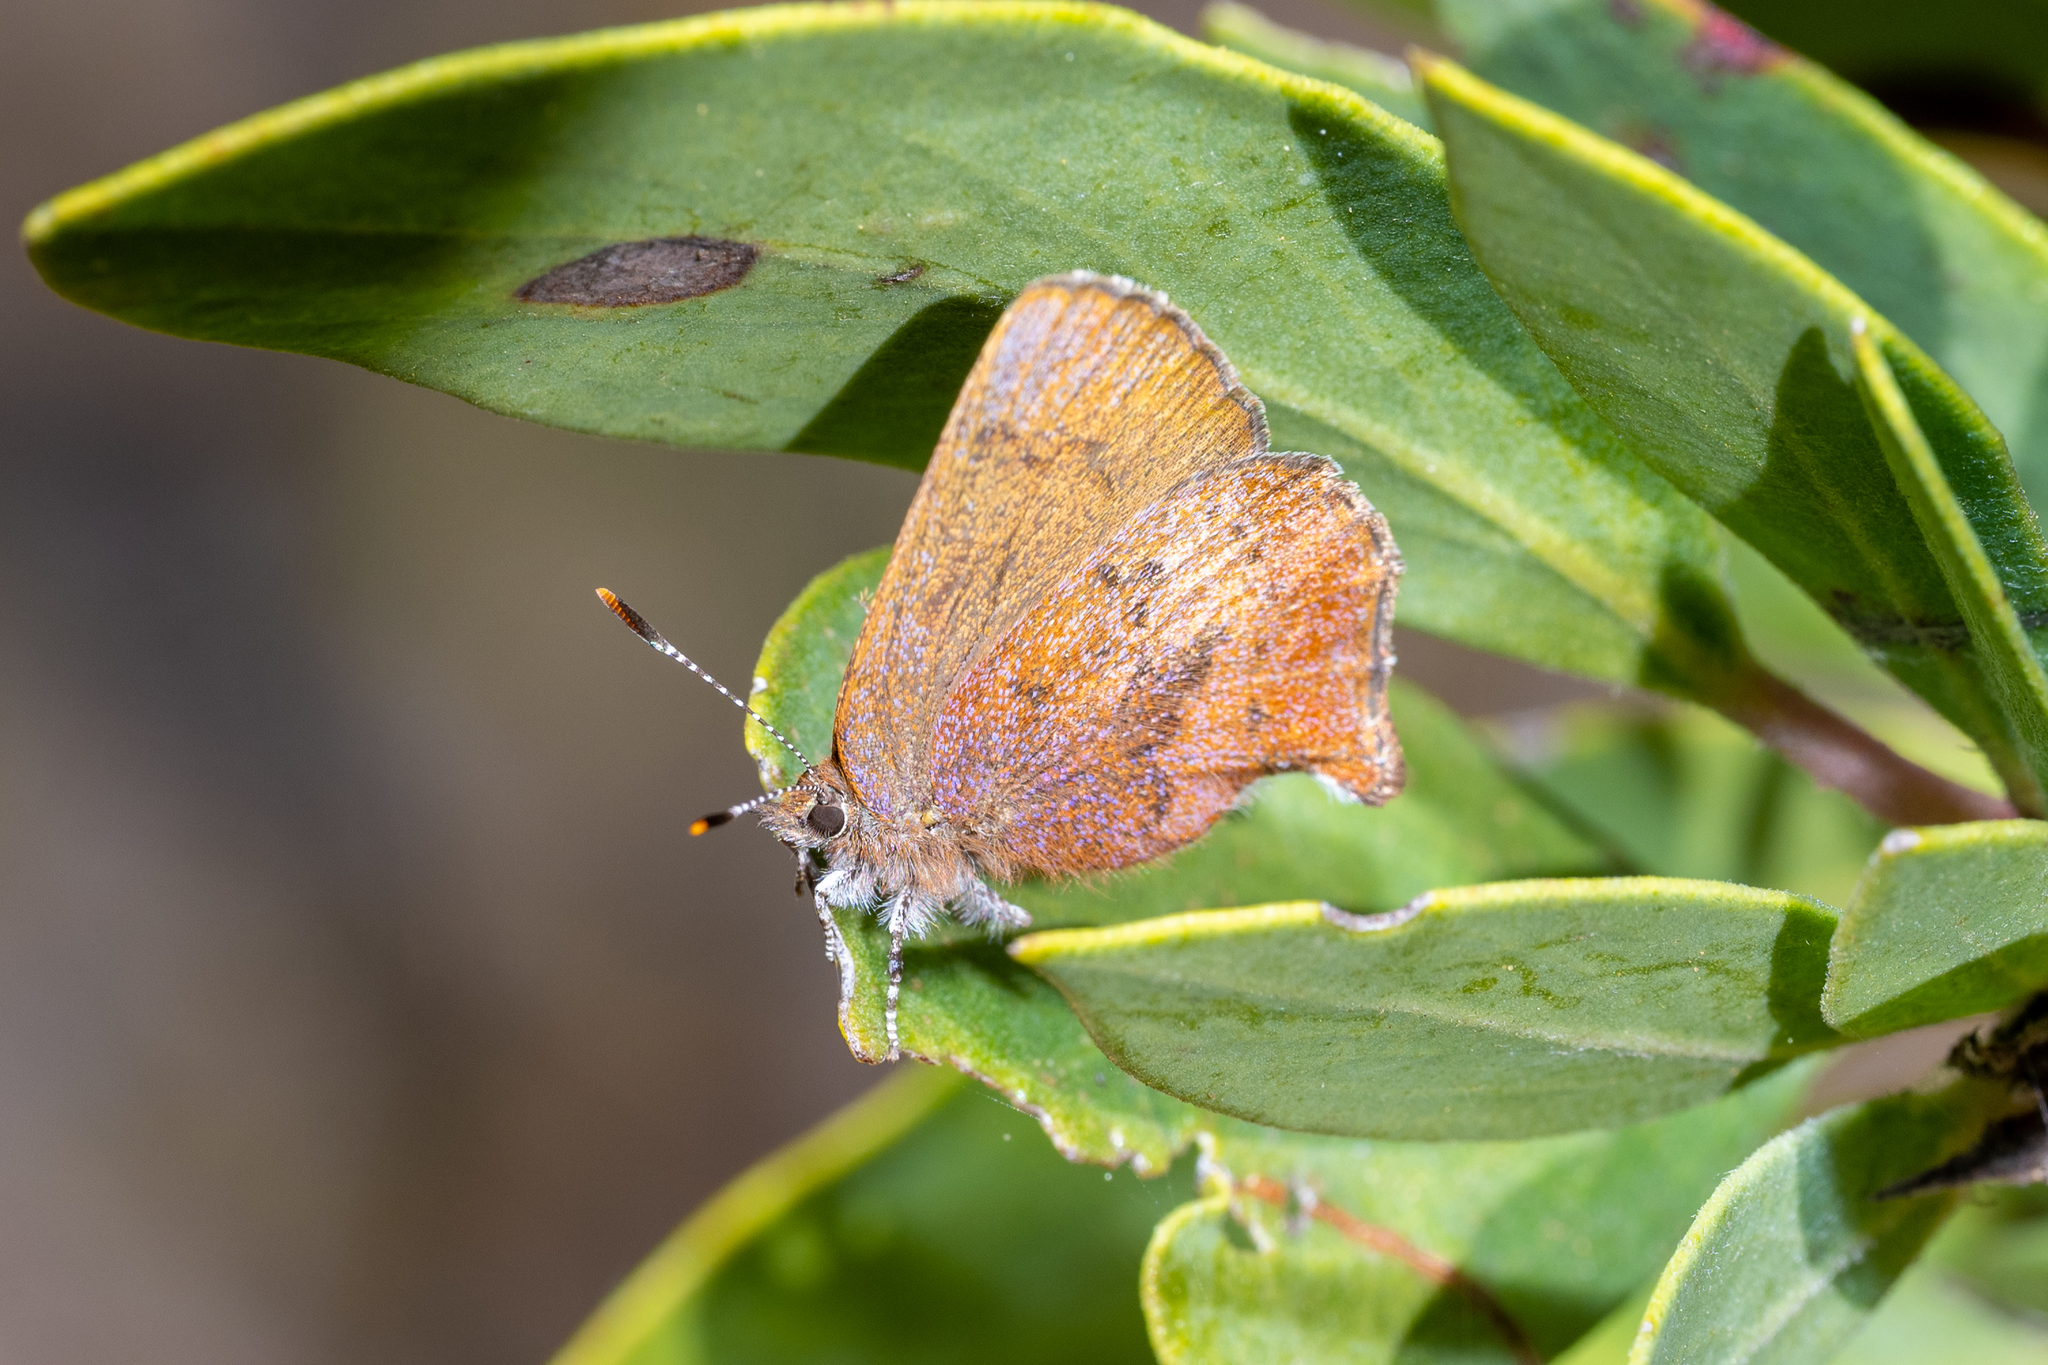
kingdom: Animalia
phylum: Arthropoda
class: Insecta
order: Lepidoptera
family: Lycaenidae
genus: Incisalia
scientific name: Incisalia irioides
